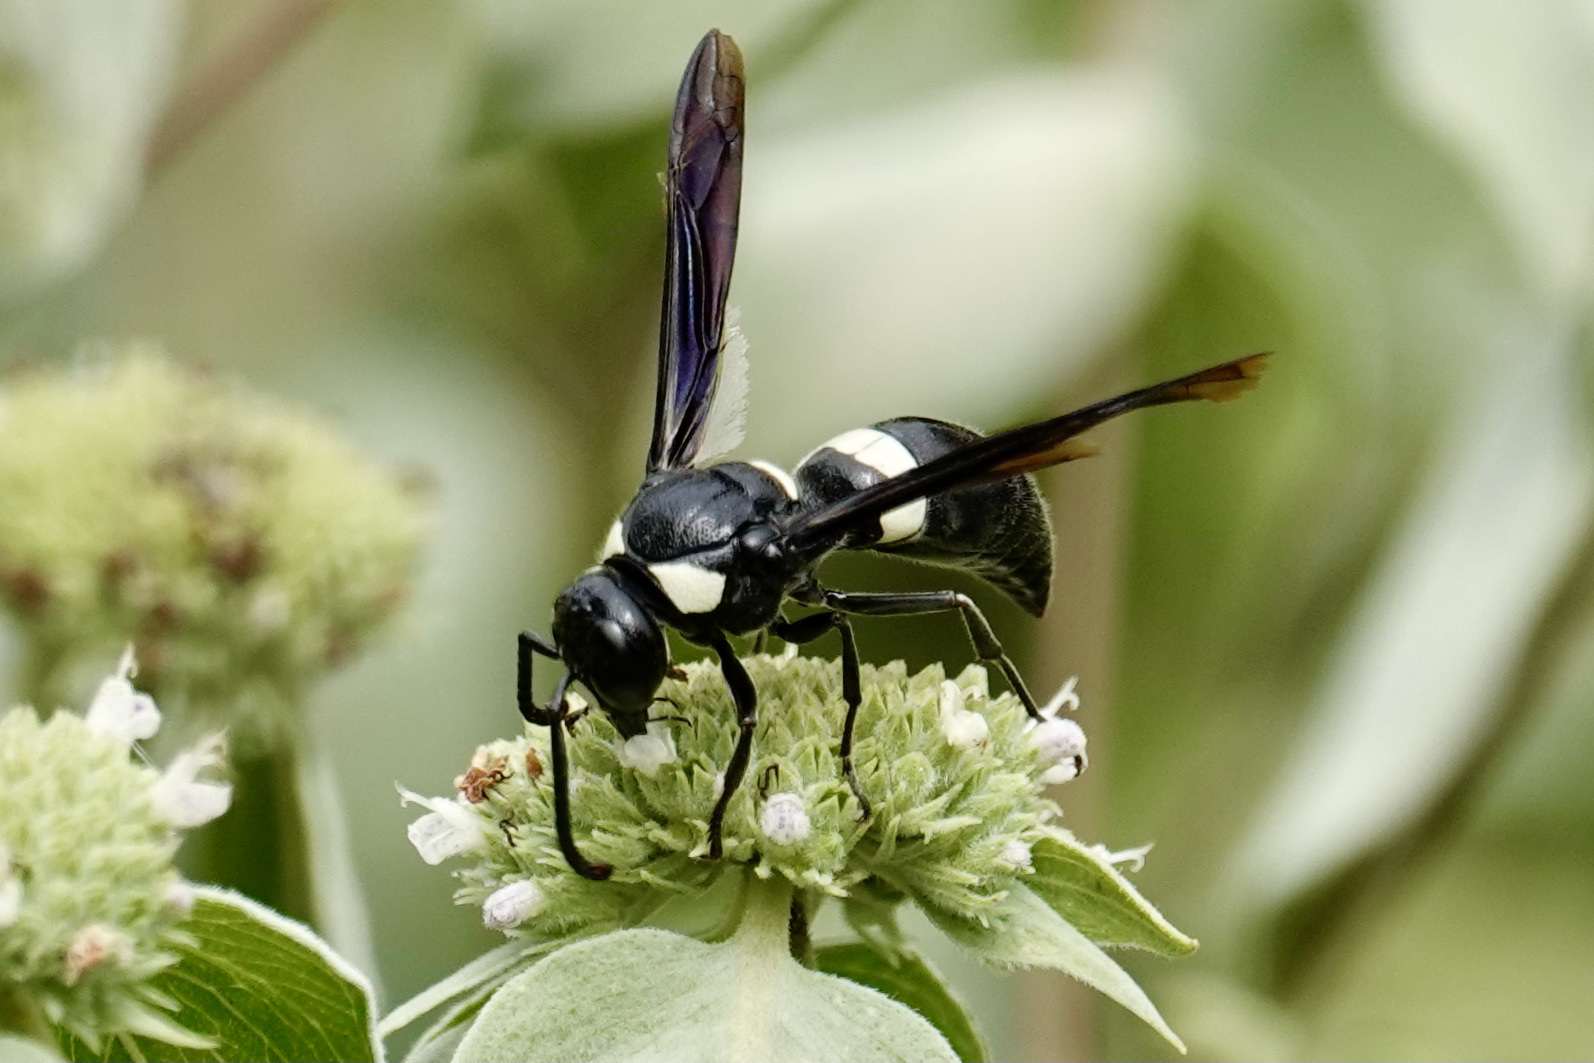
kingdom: Animalia
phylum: Arthropoda
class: Insecta
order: Hymenoptera
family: Eumenidae
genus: Monobia
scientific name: Monobia quadridens
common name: Four-toothed mason wasp
